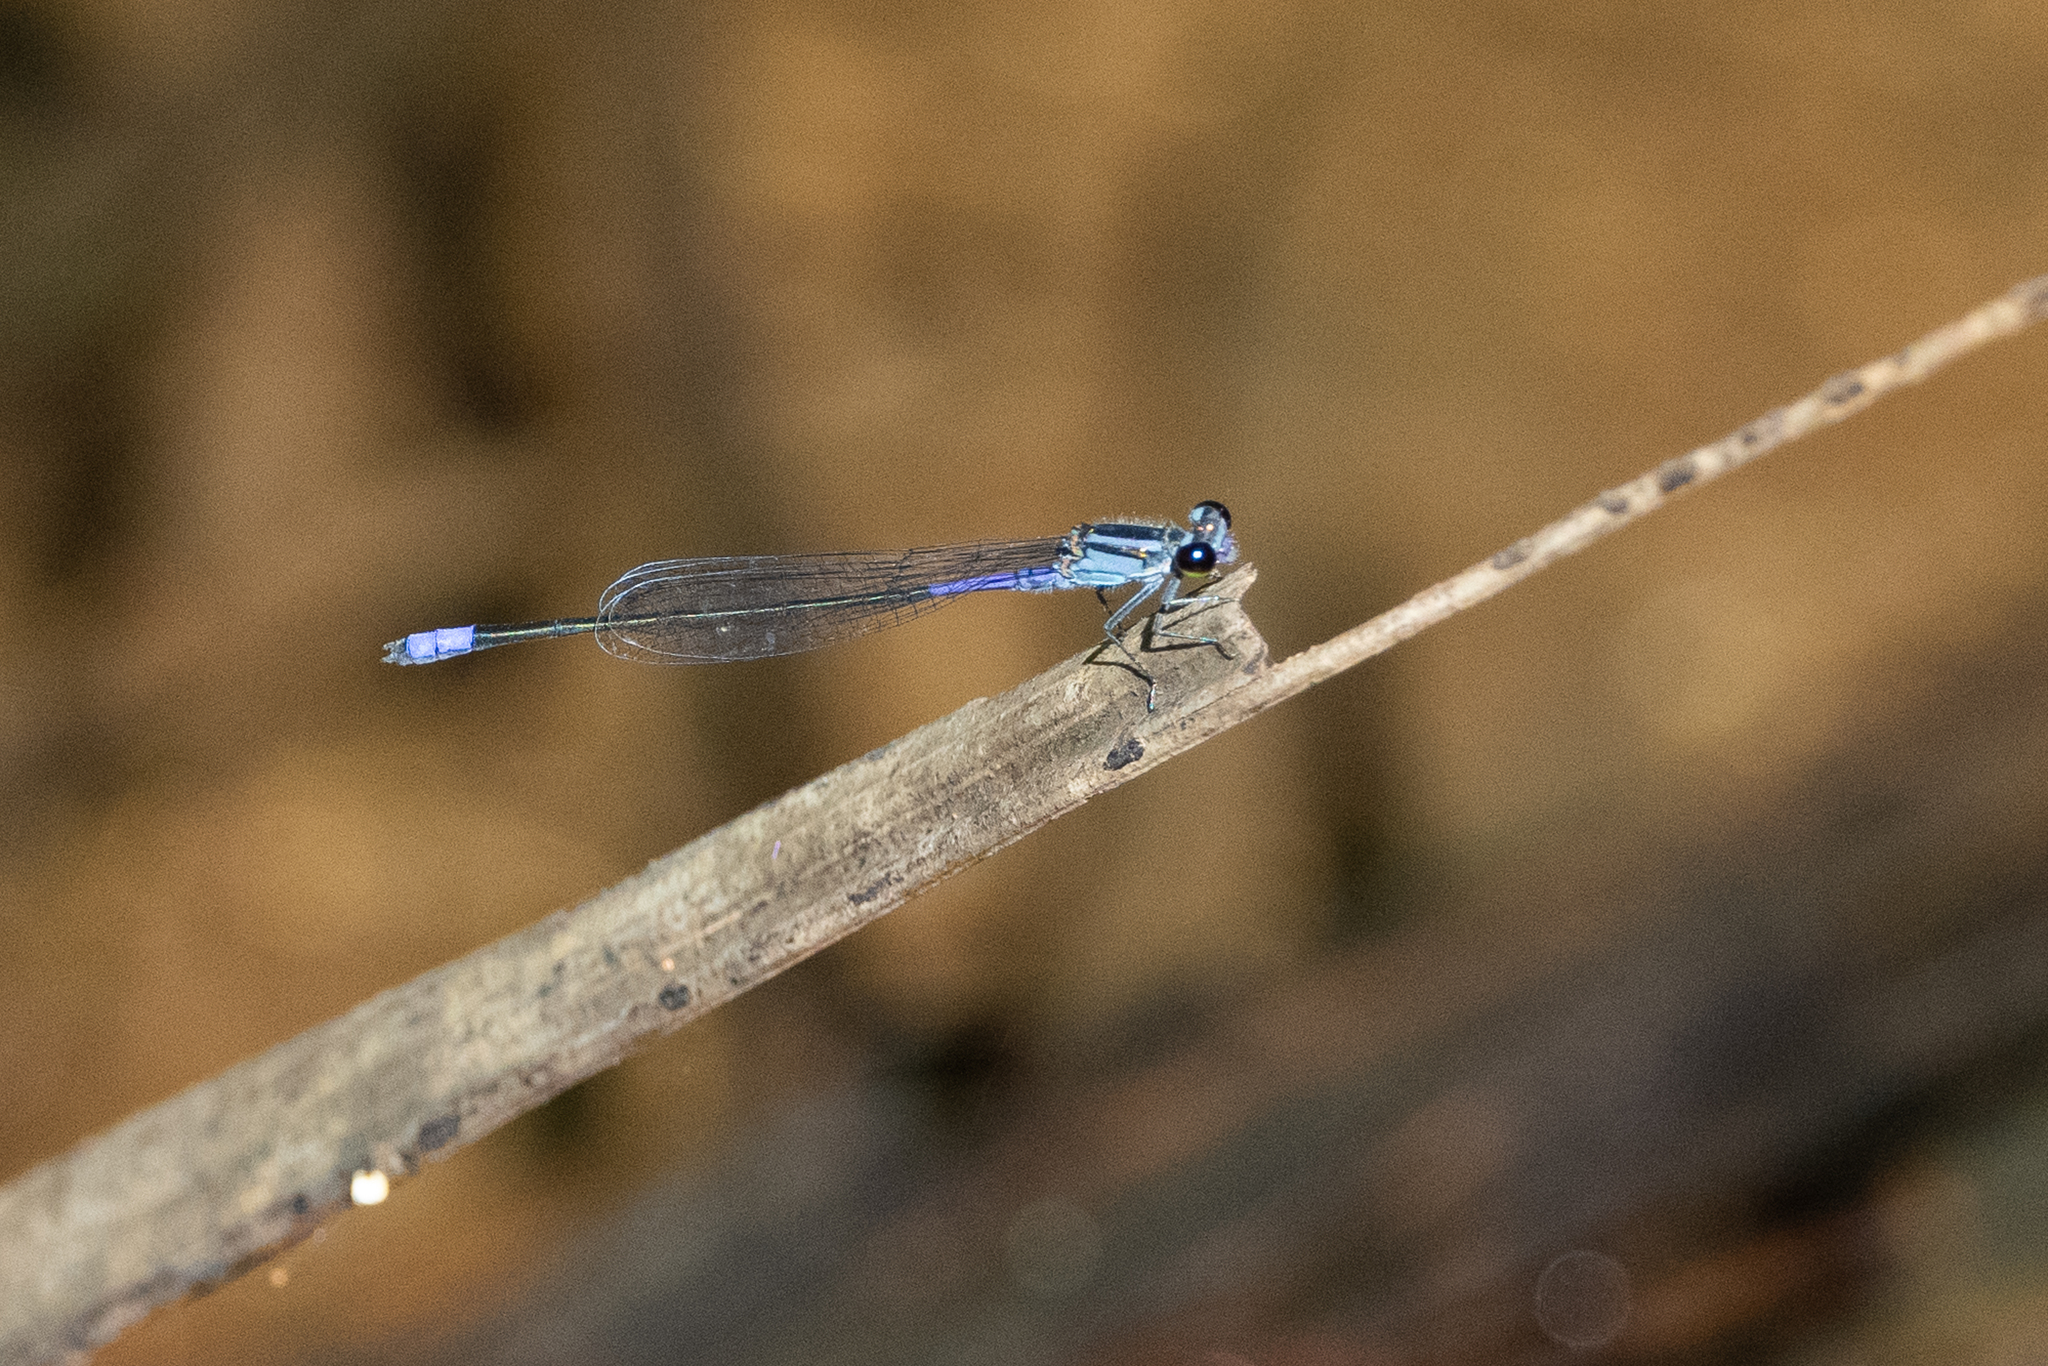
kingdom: Animalia
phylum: Arthropoda
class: Insecta
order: Odonata
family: Coenagrionidae
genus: Enallagma
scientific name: Enallagma coecum
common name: Antillean bluet
